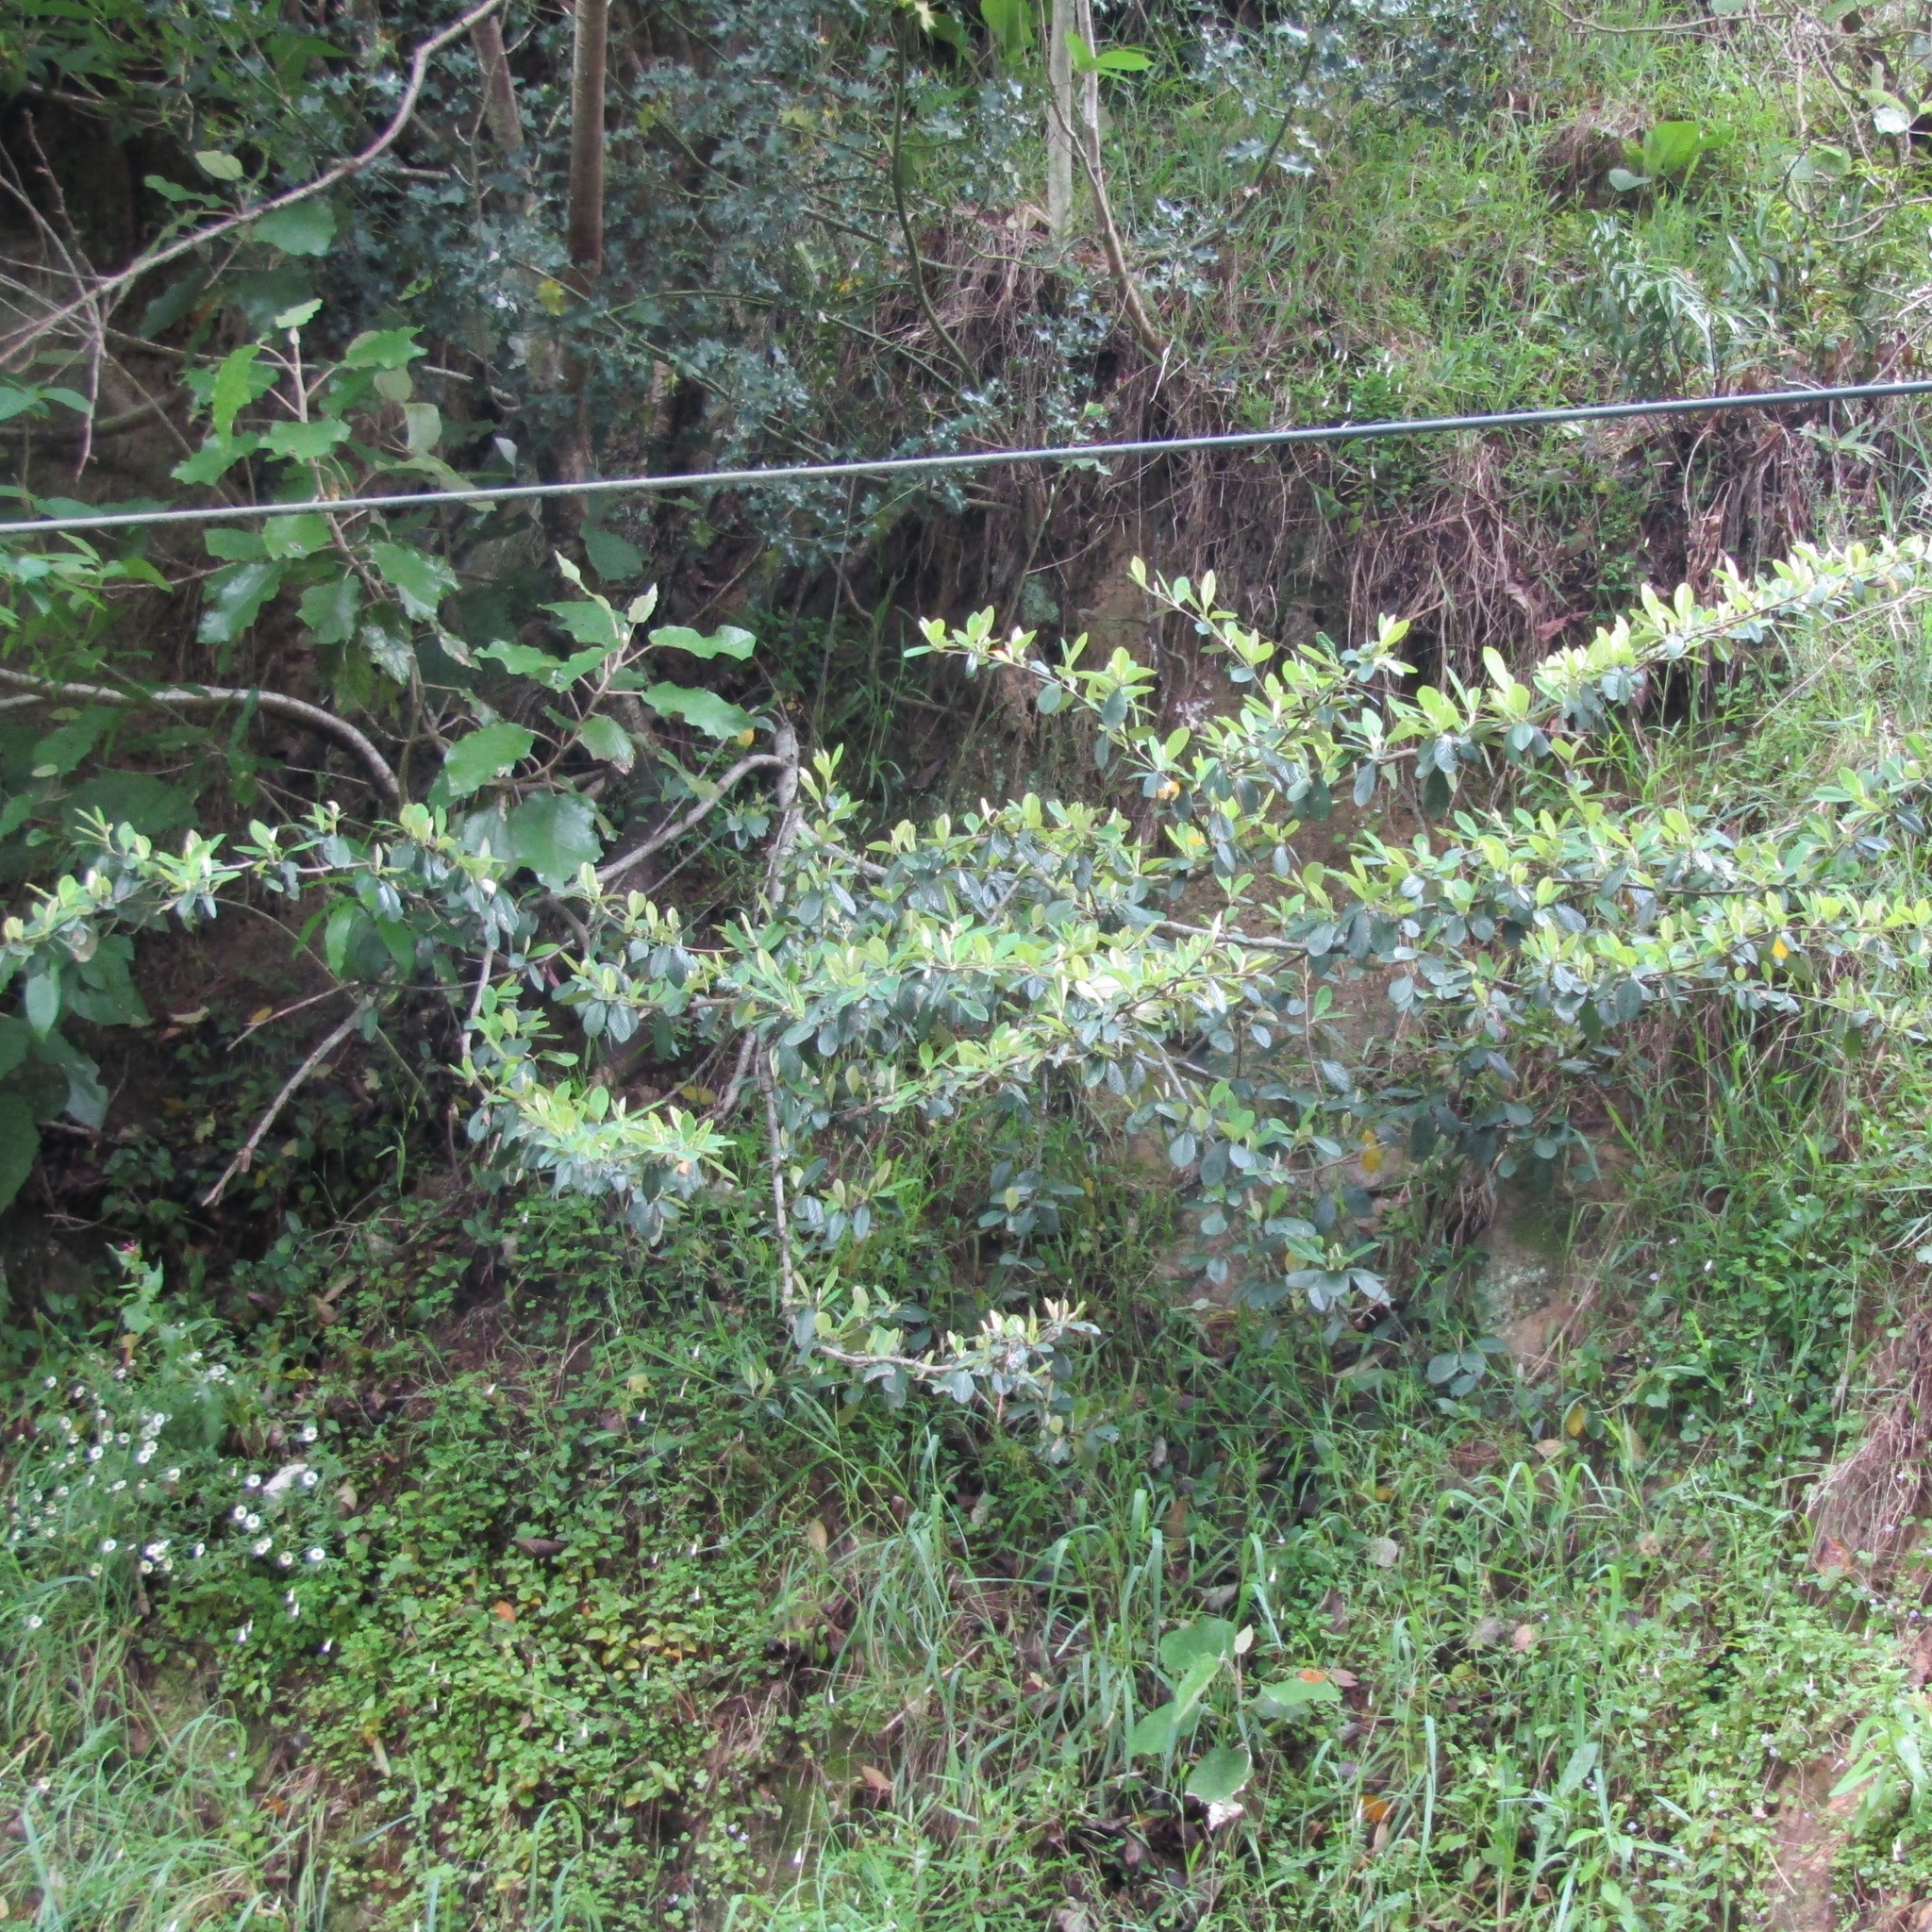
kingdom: Plantae
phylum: Tracheophyta
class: Magnoliopsida
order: Rosales
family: Rosaceae
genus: Cotoneaster
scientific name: Cotoneaster coriaceus
